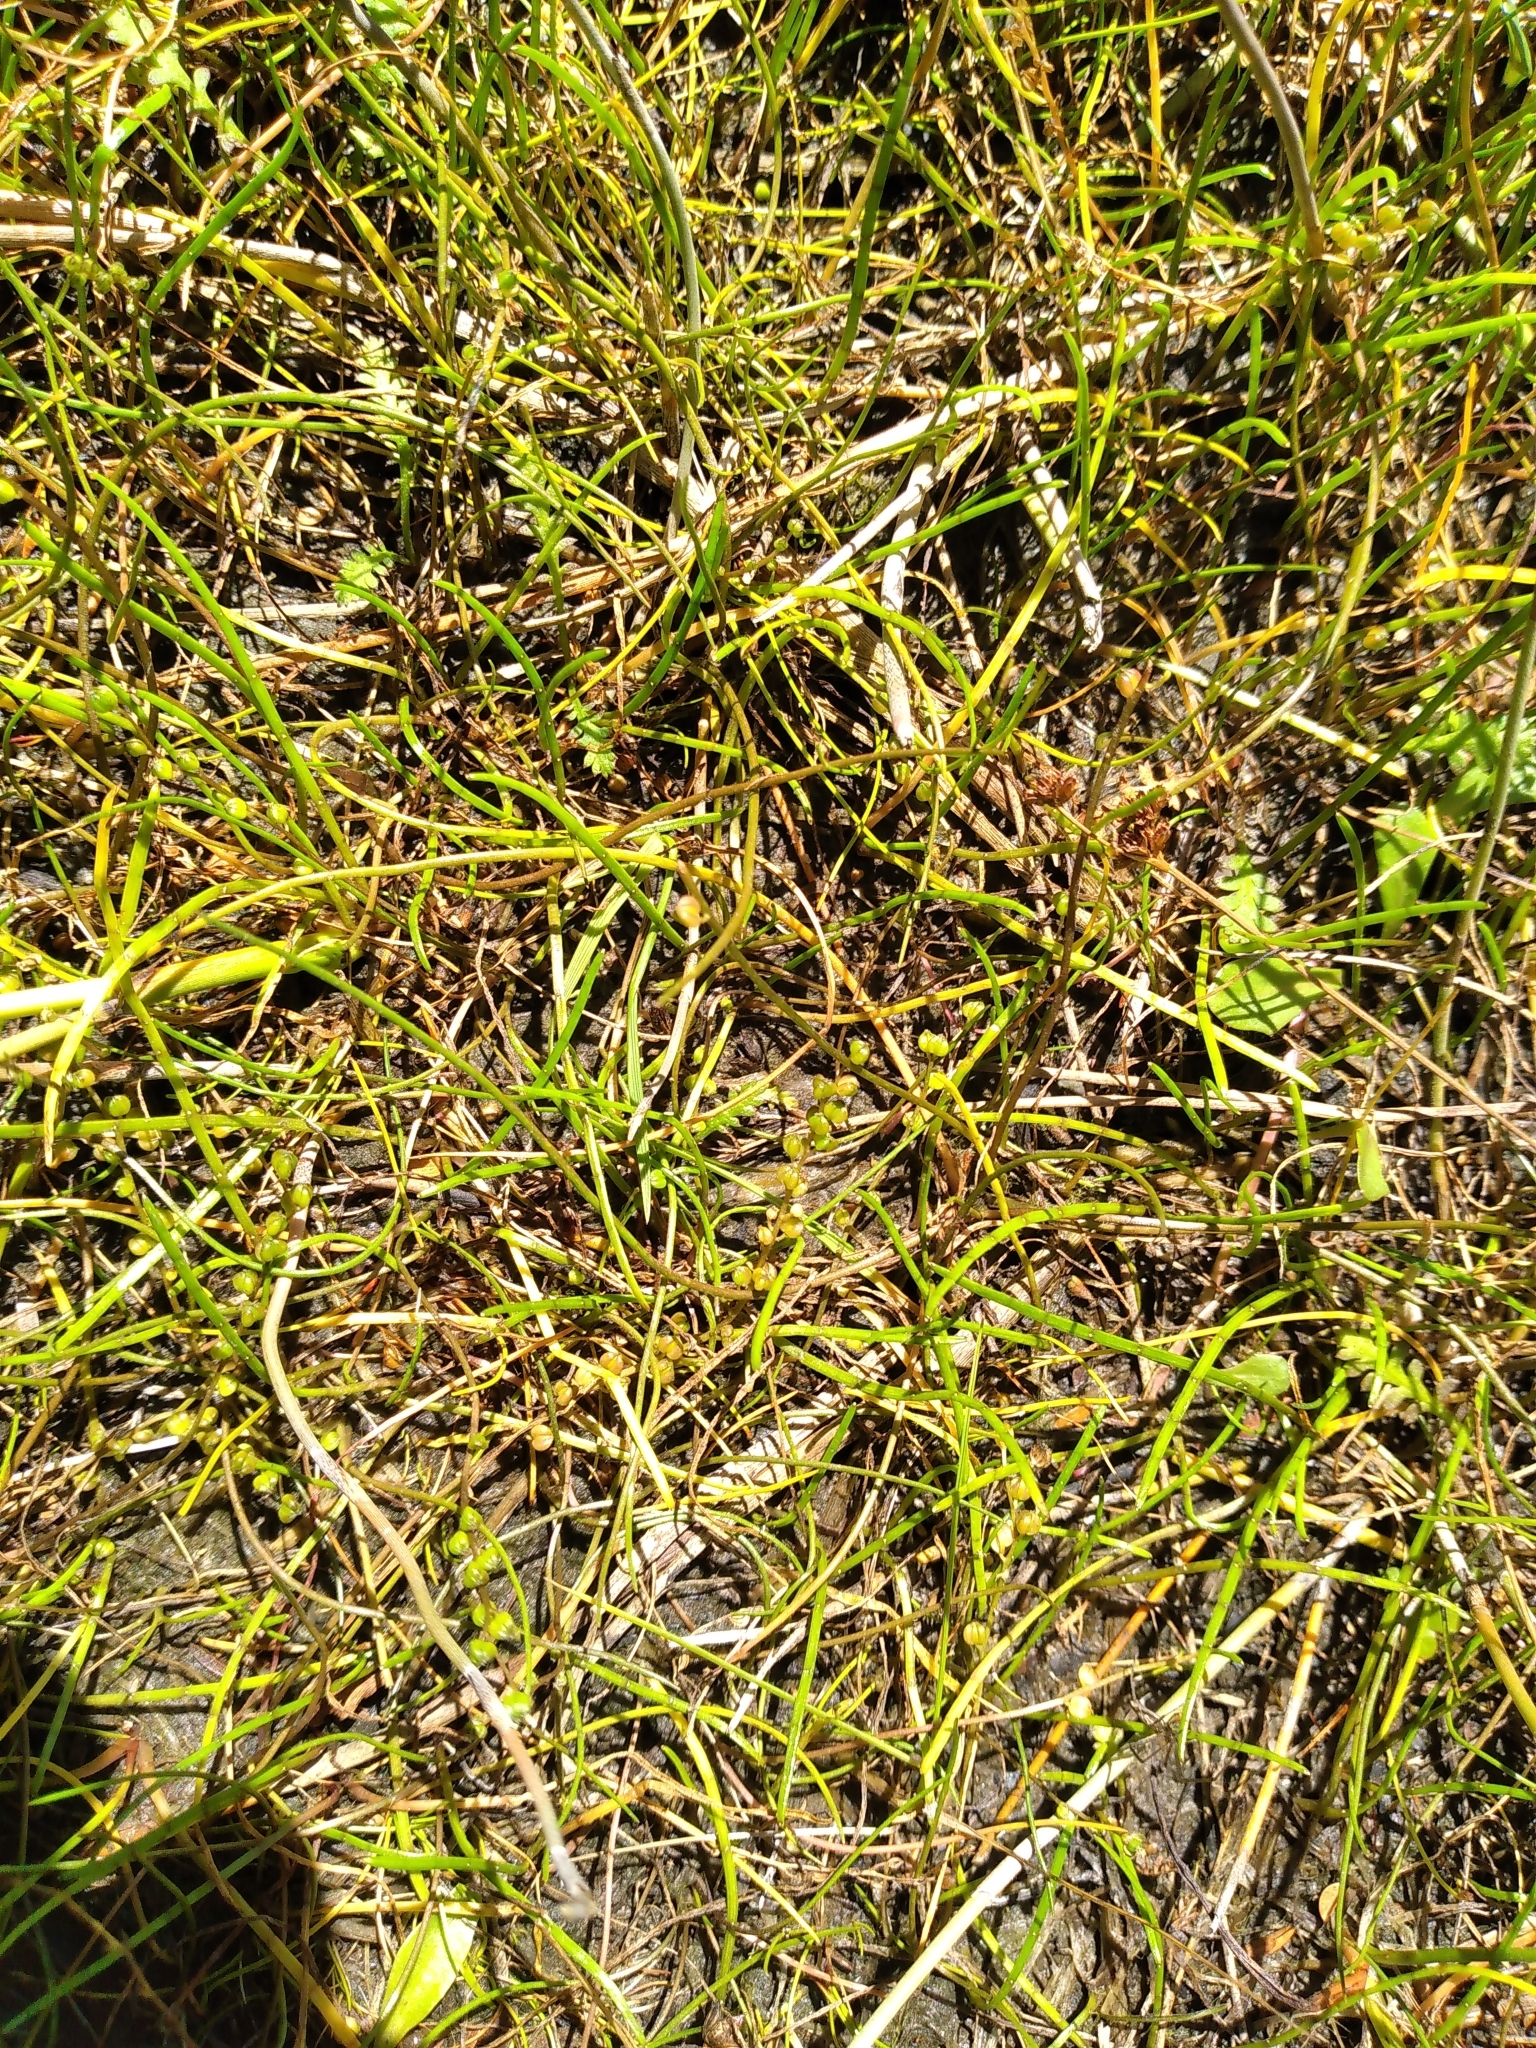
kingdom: Plantae
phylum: Tracheophyta
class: Liliopsida
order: Alismatales
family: Juncaginaceae
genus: Triglochin
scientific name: Triglochin striata
